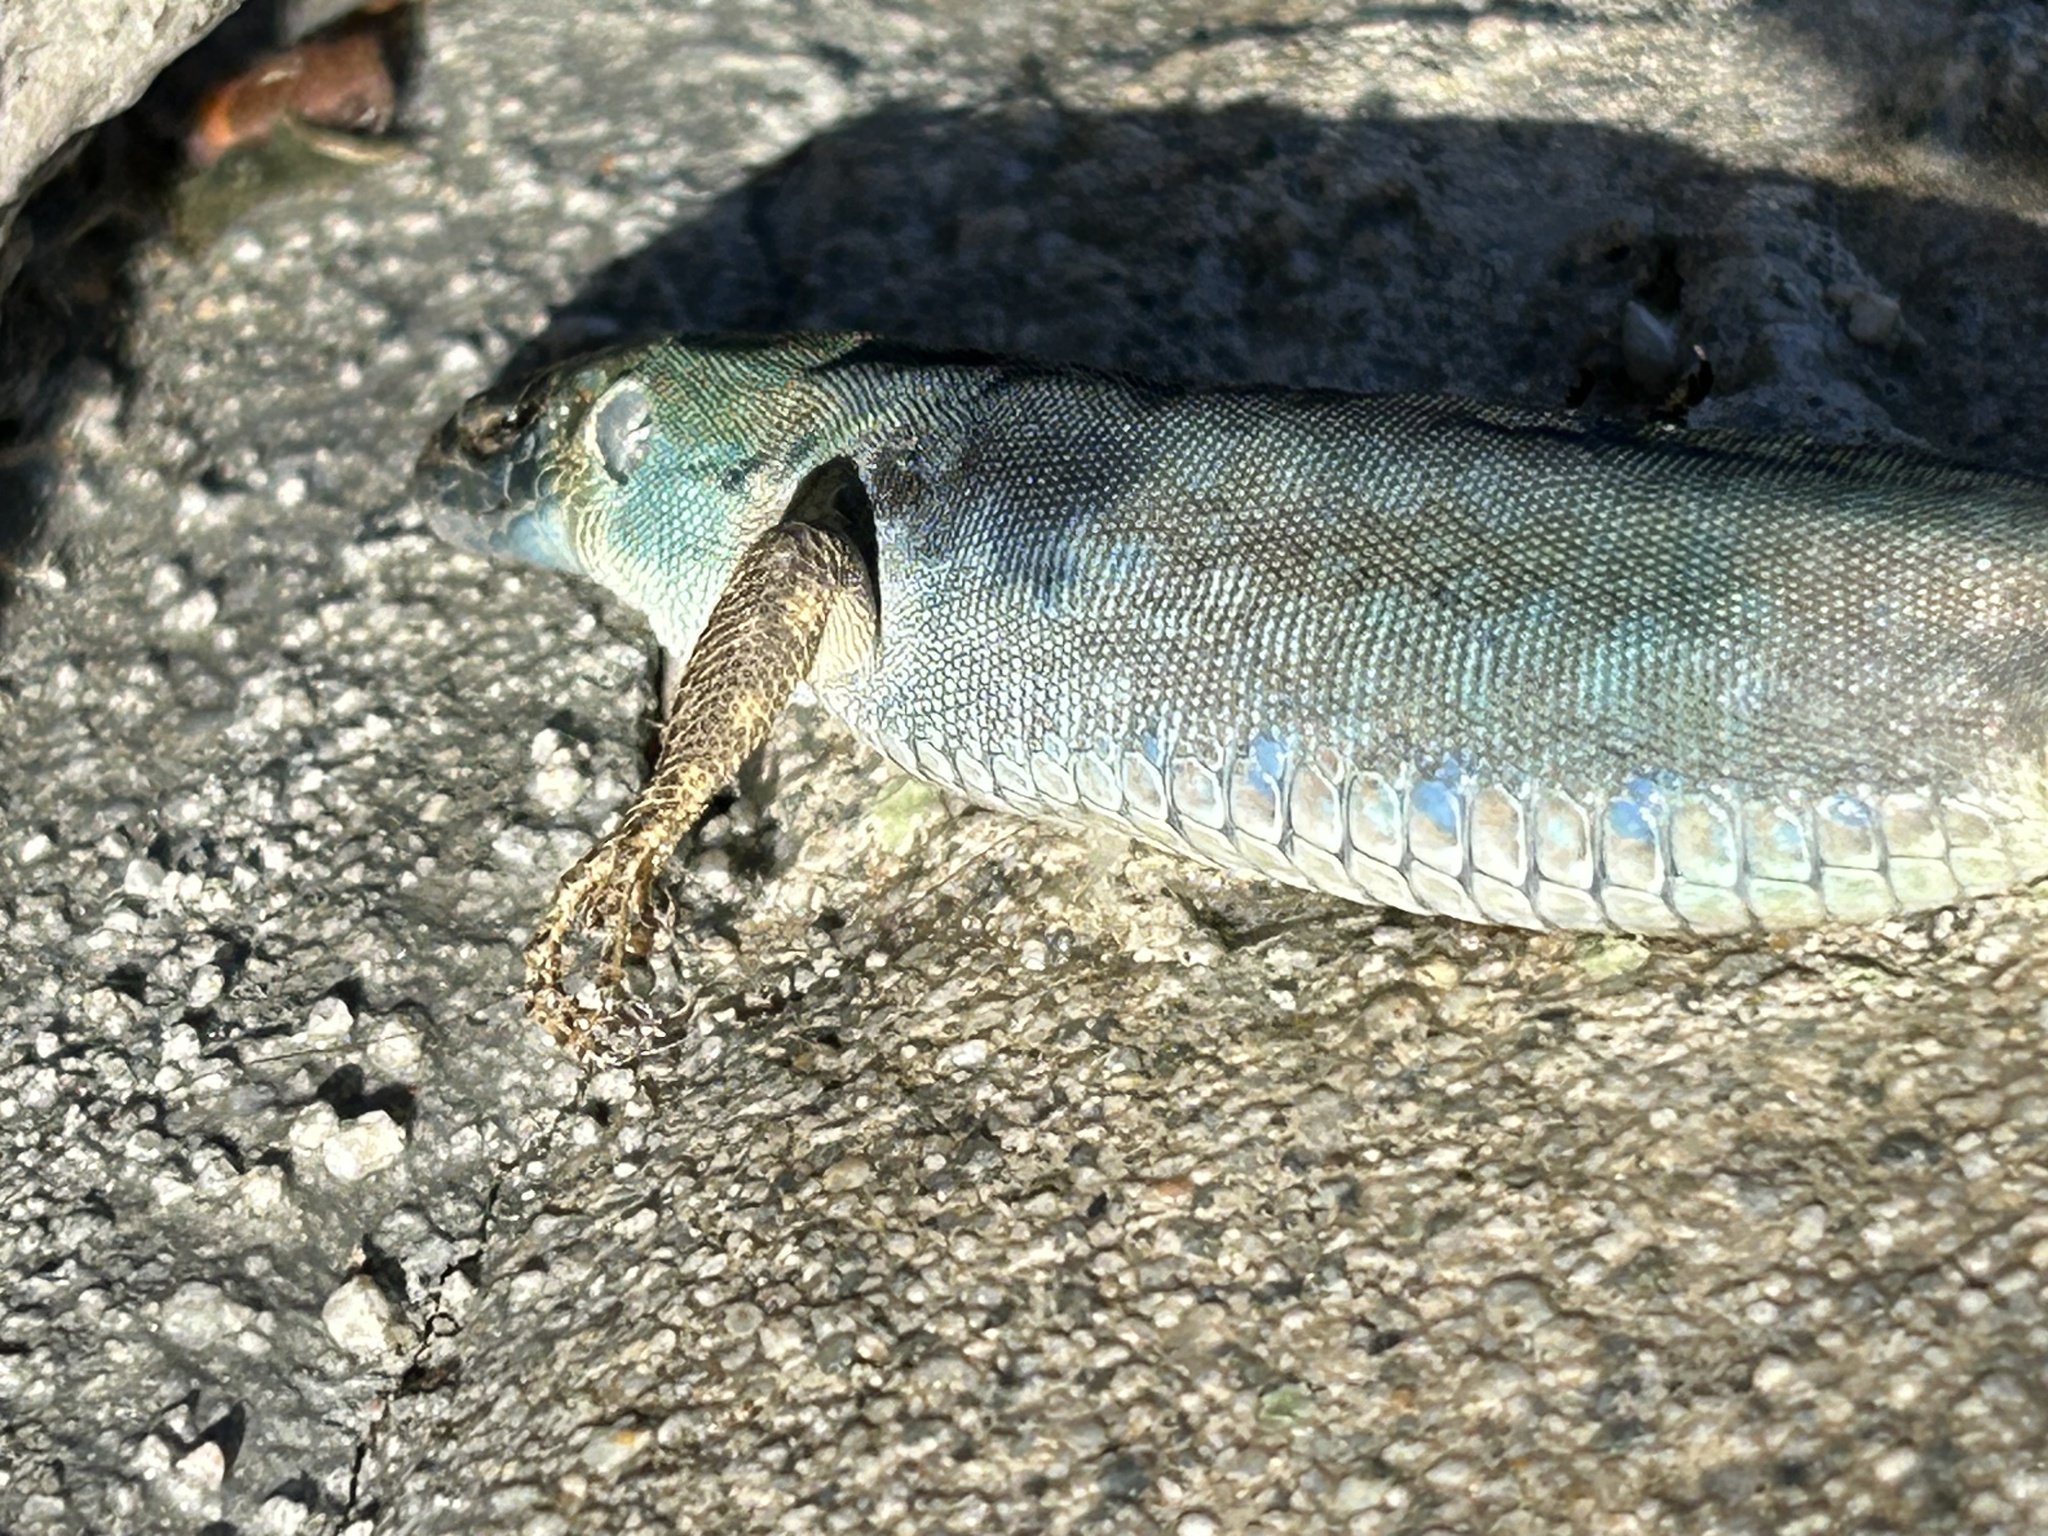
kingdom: Animalia
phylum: Chordata
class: Squamata
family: Lacertidae
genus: Podarcis
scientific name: Podarcis siculus
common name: Italian wall lizard
